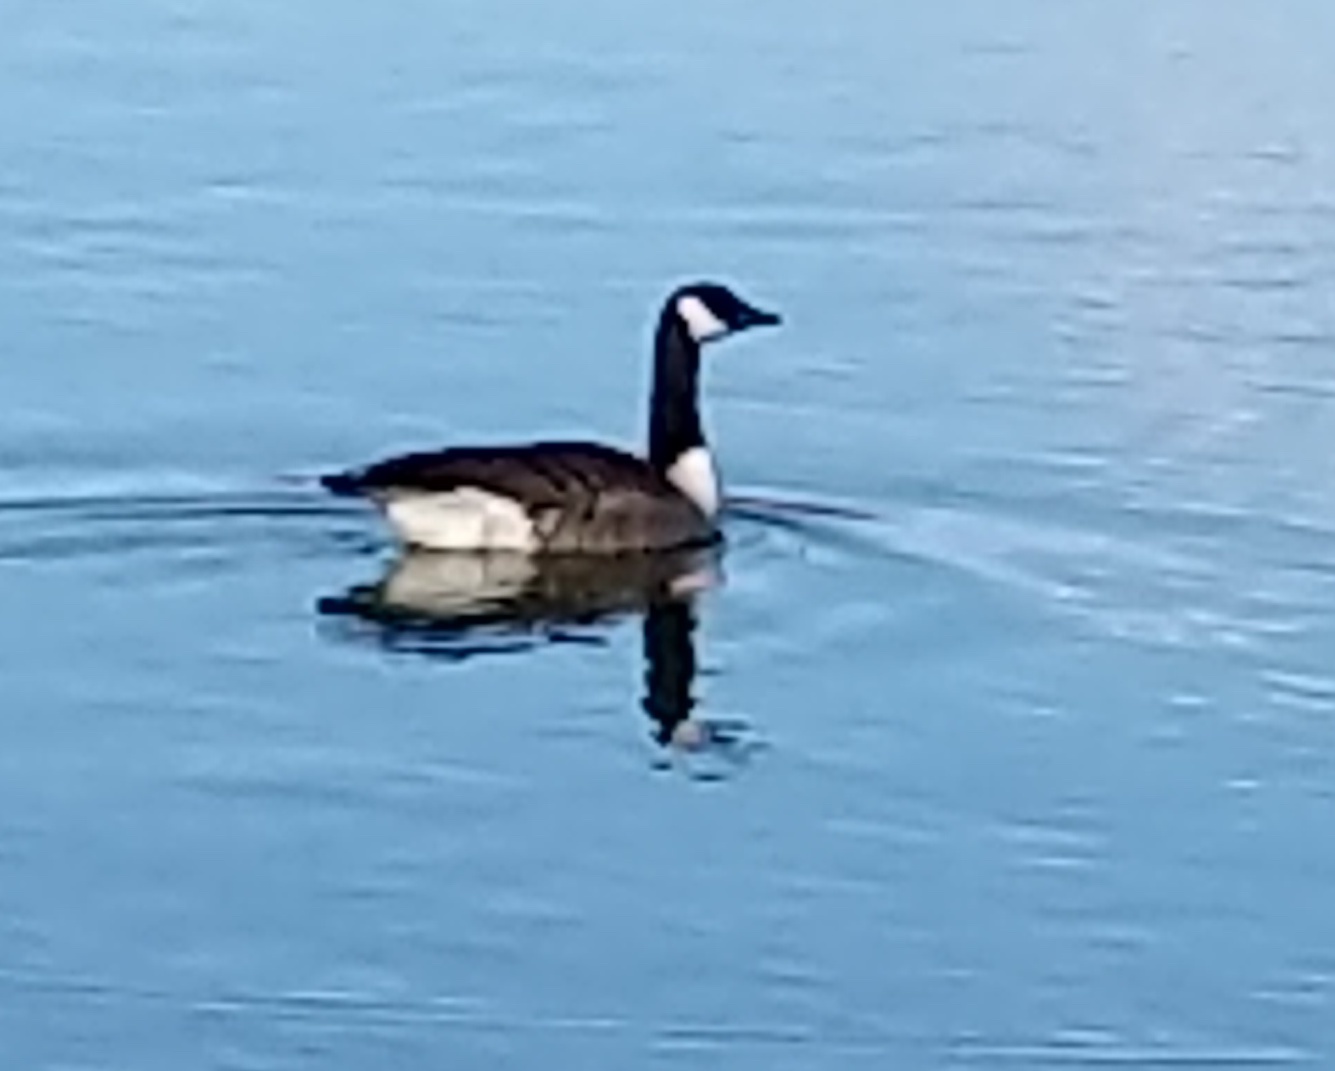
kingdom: Animalia
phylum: Chordata
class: Aves
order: Anseriformes
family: Anatidae
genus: Branta
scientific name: Branta canadensis
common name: Canada goose
